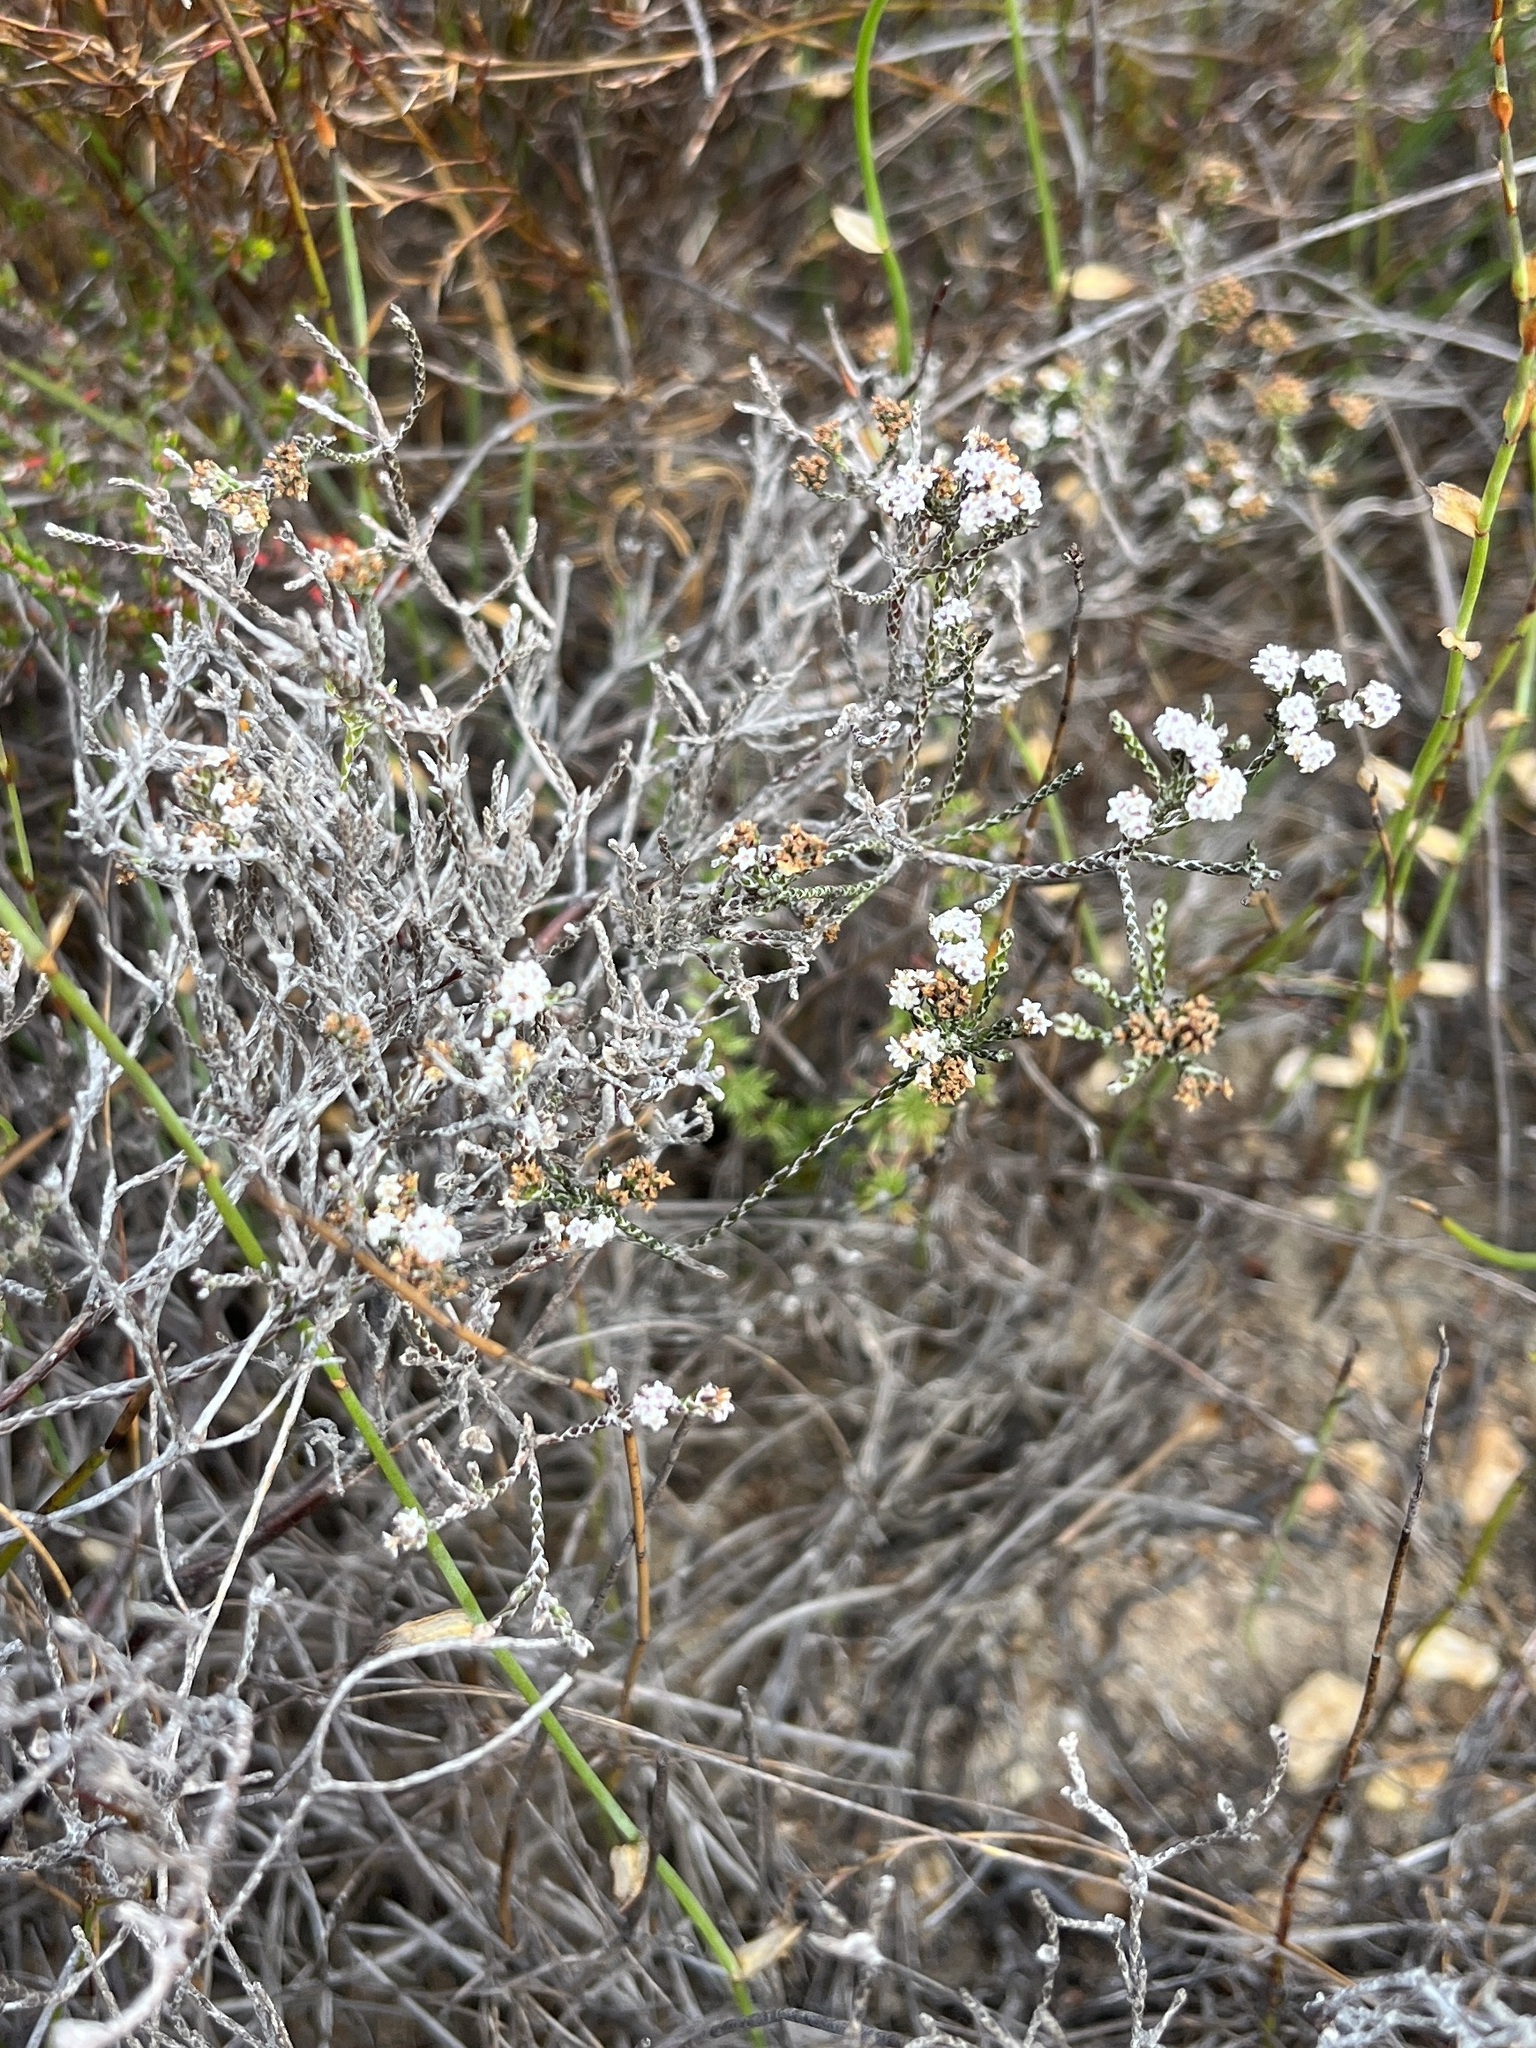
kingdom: Plantae
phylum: Tracheophyta
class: Magnoliopsida
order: Asterales
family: Asteraceae
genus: Stoebe
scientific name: Stoebe schultzii
